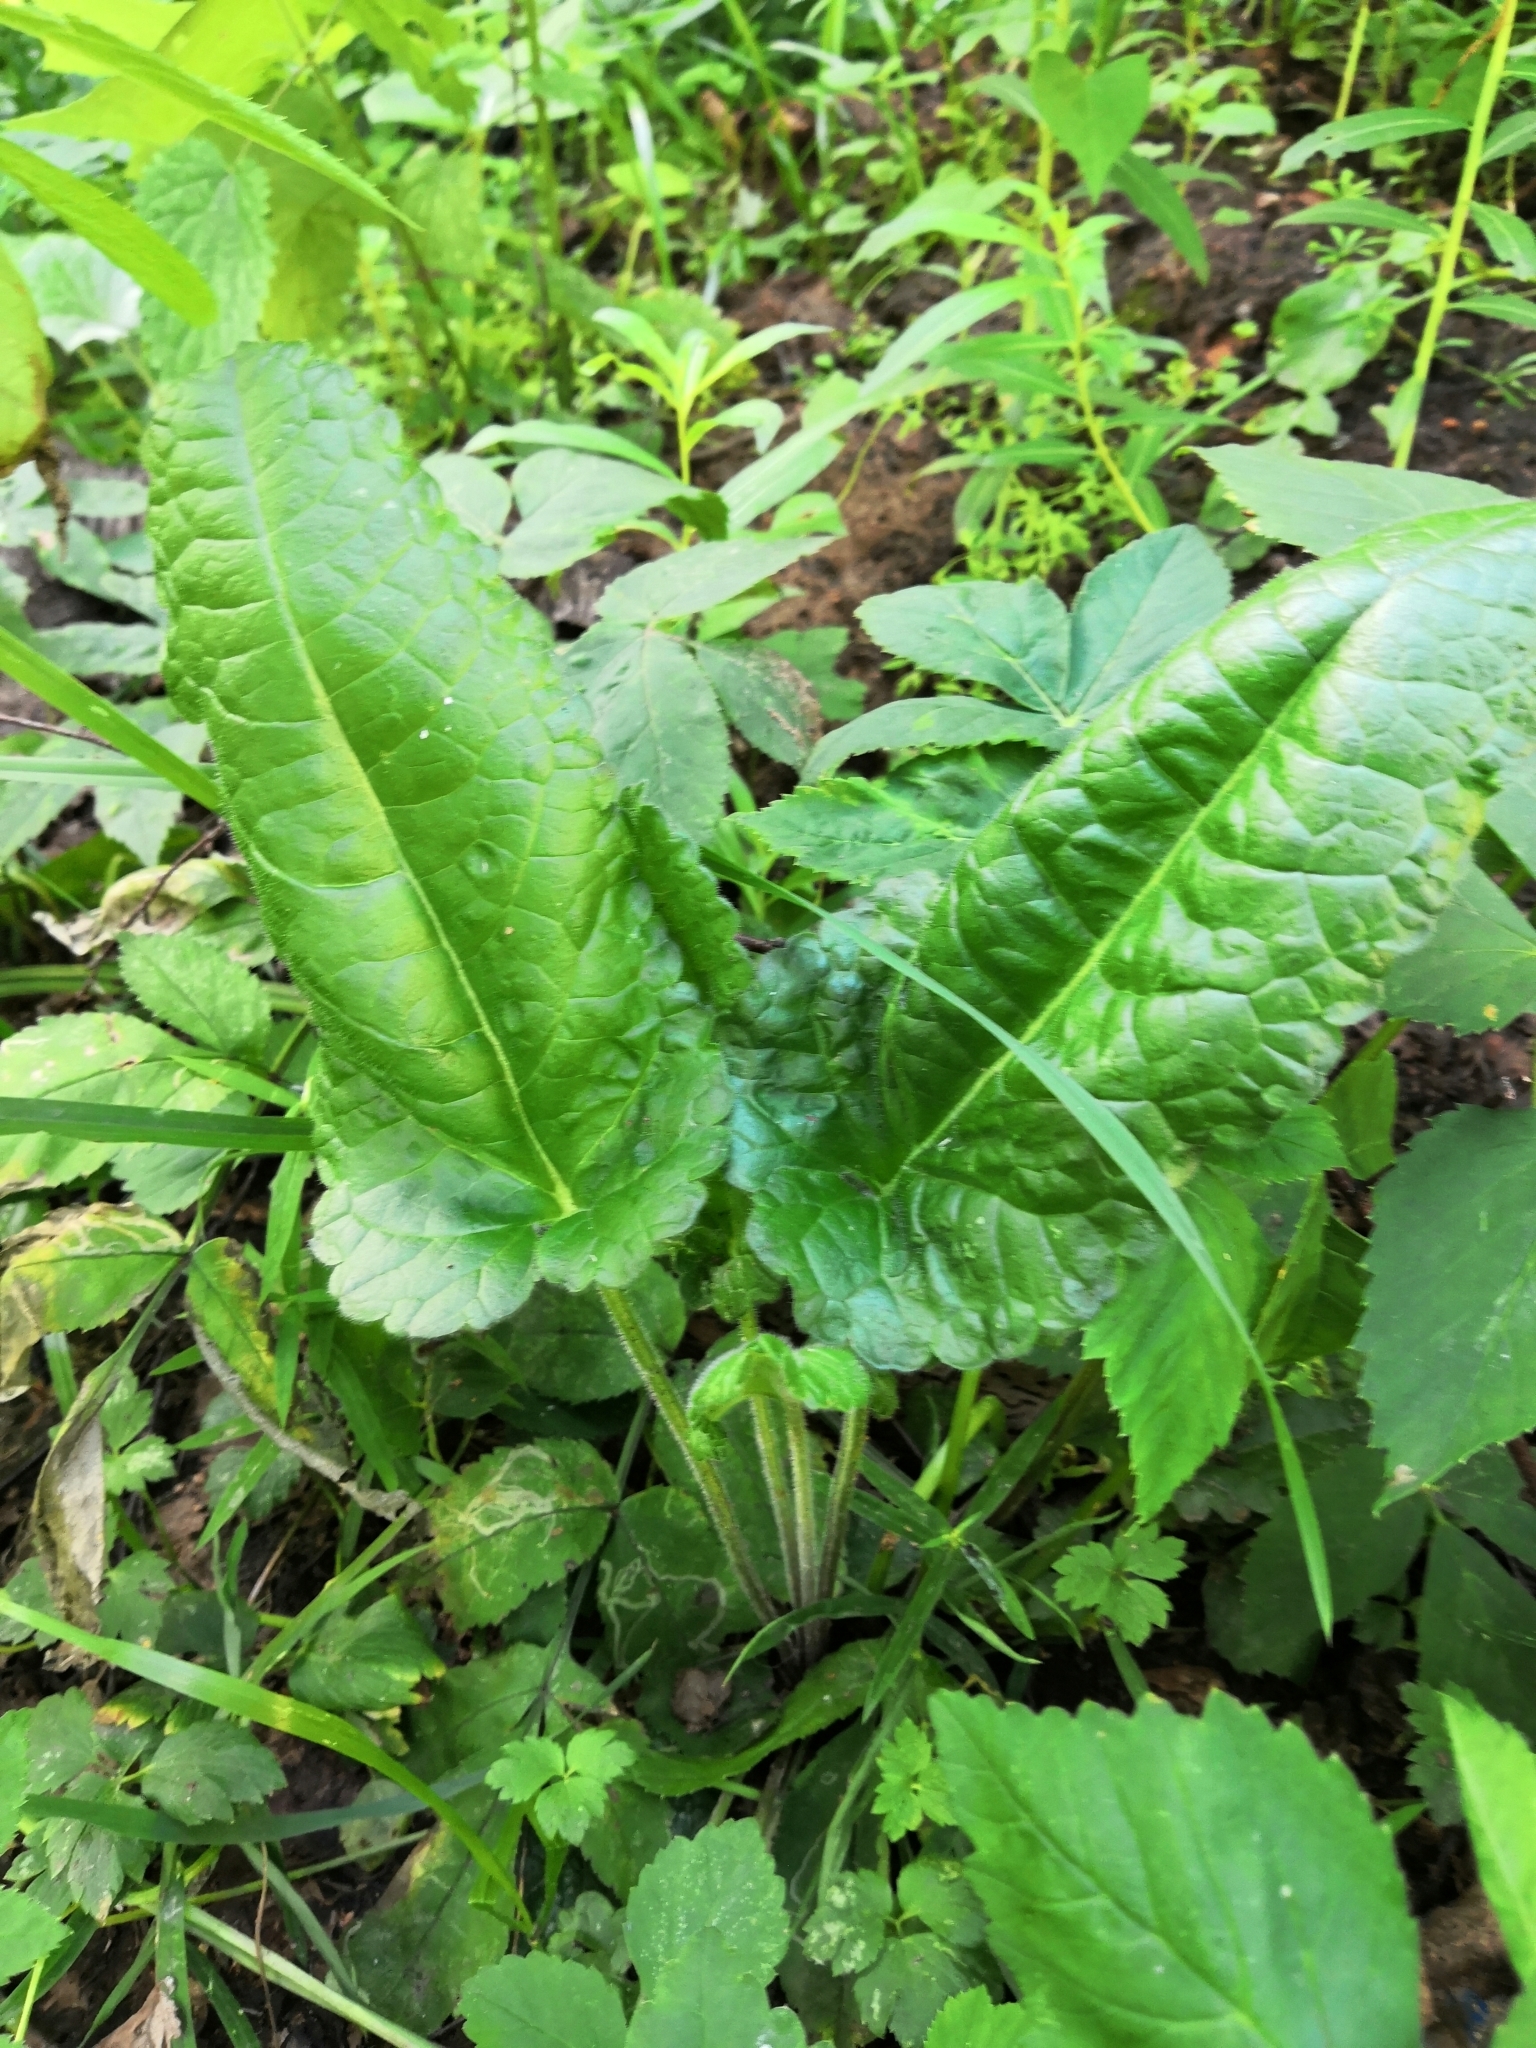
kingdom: Plantae
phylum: Tracheophyta
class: Magnoliopsida
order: Lamiales
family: Lamiaceae
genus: Betonica
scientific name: Betonica officinalis
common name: Bishop's-wort
